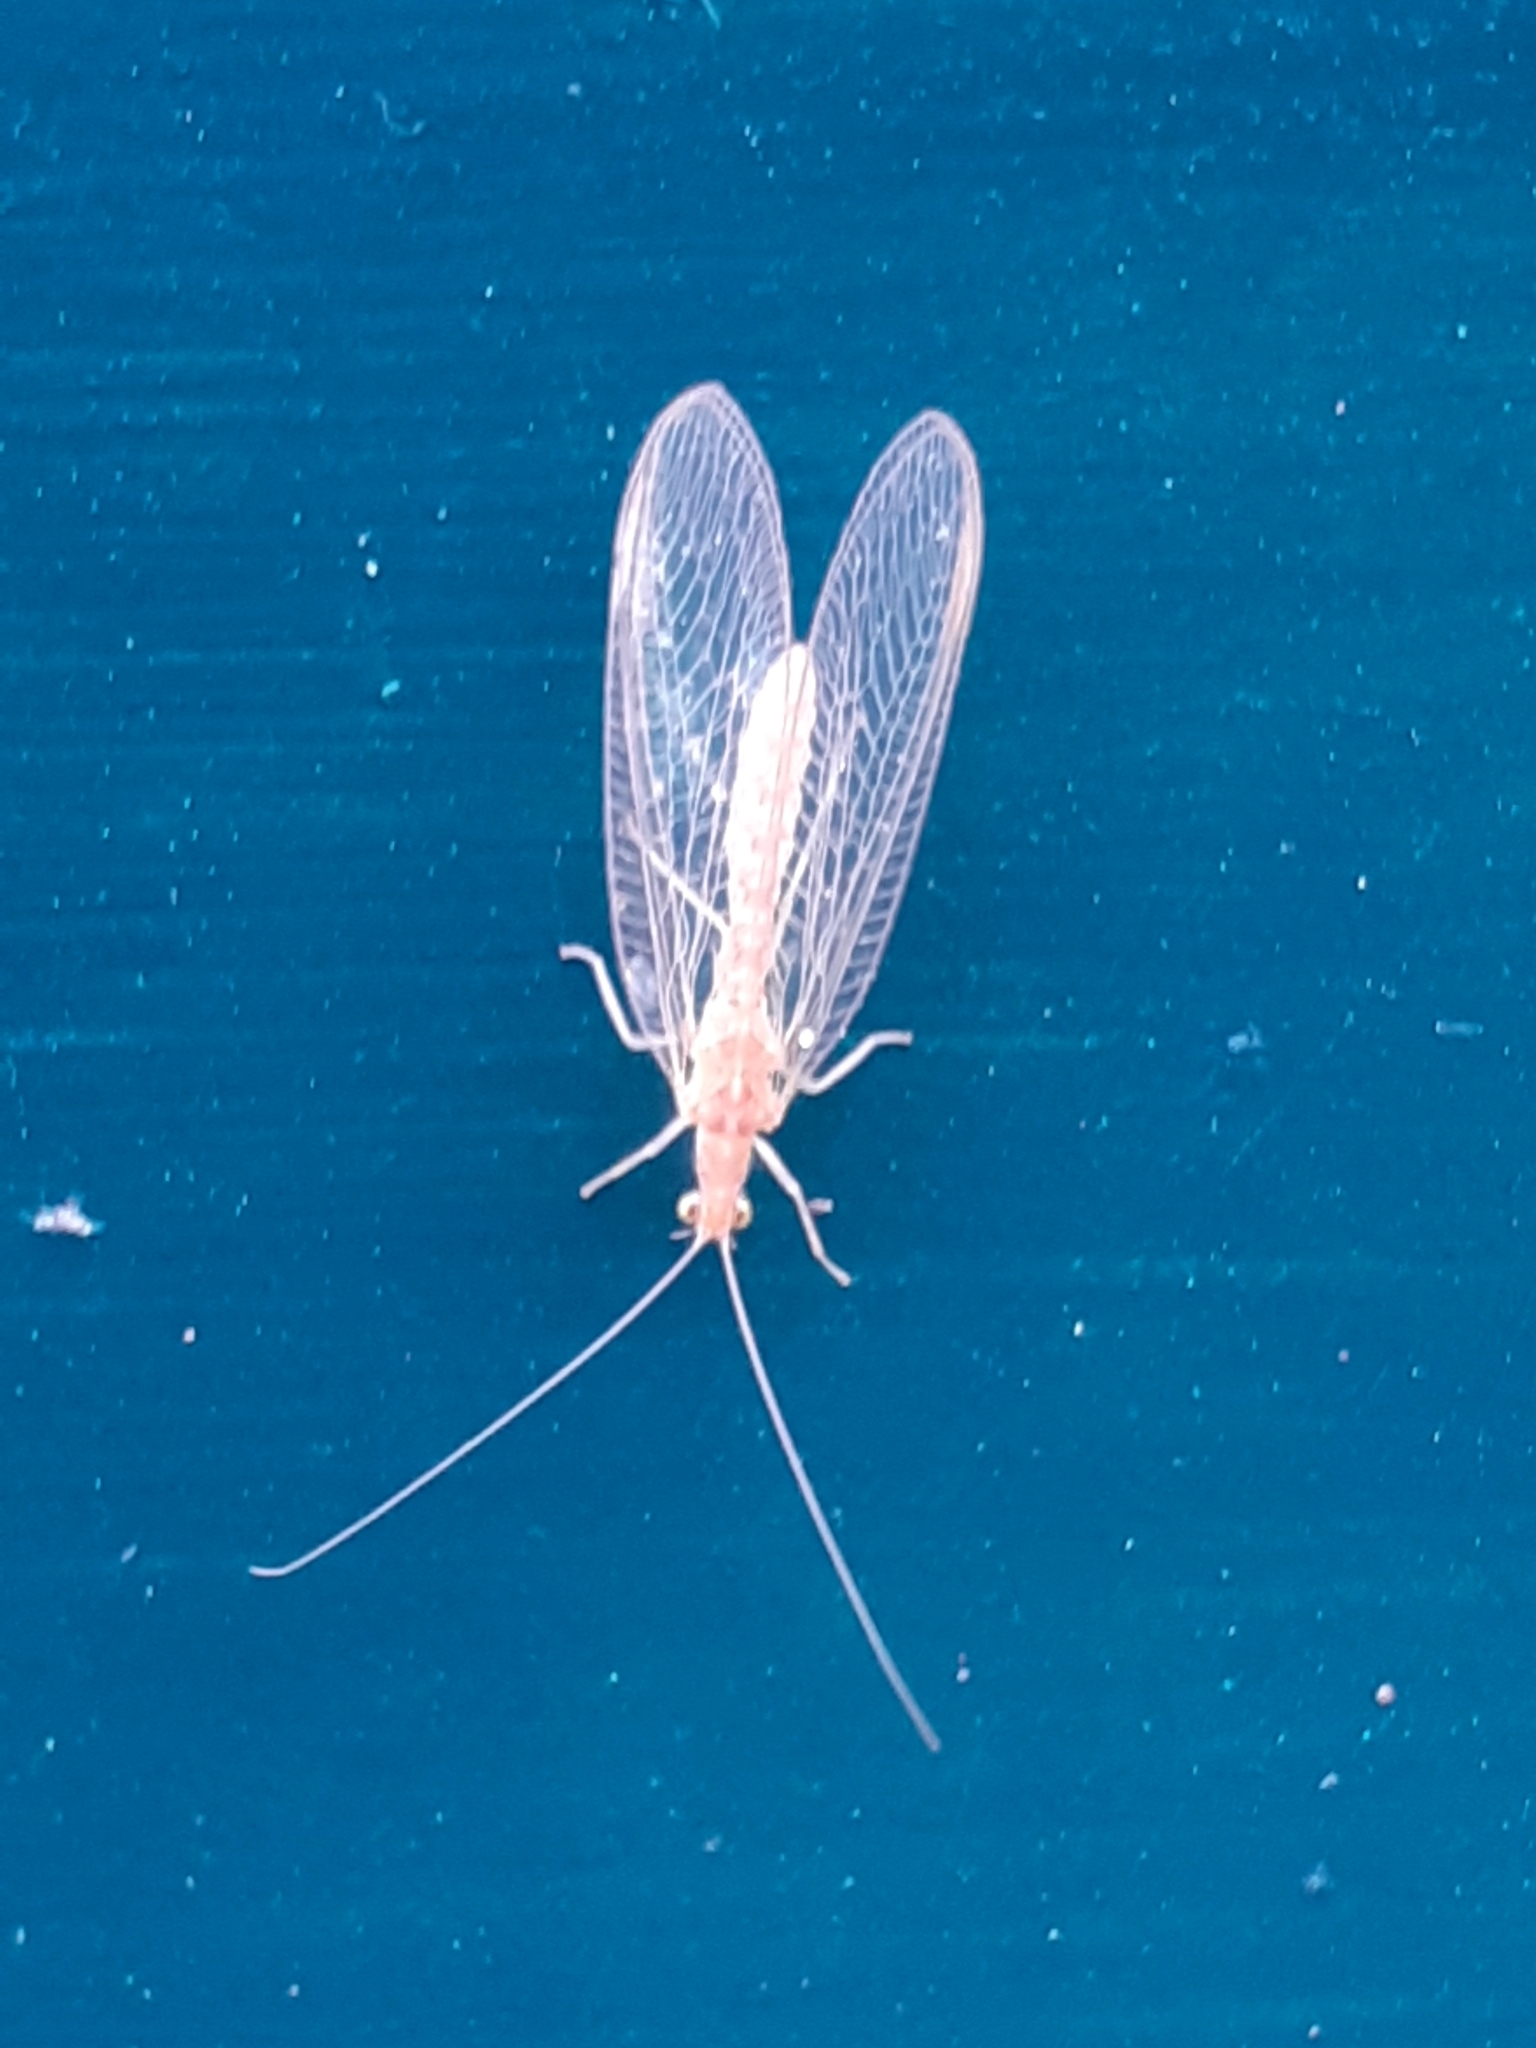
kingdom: Animalia
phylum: Arthropoda
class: Insecta
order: Neuroptera
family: Chrysopidae
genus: Chrysoperla
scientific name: Chrysoperla
